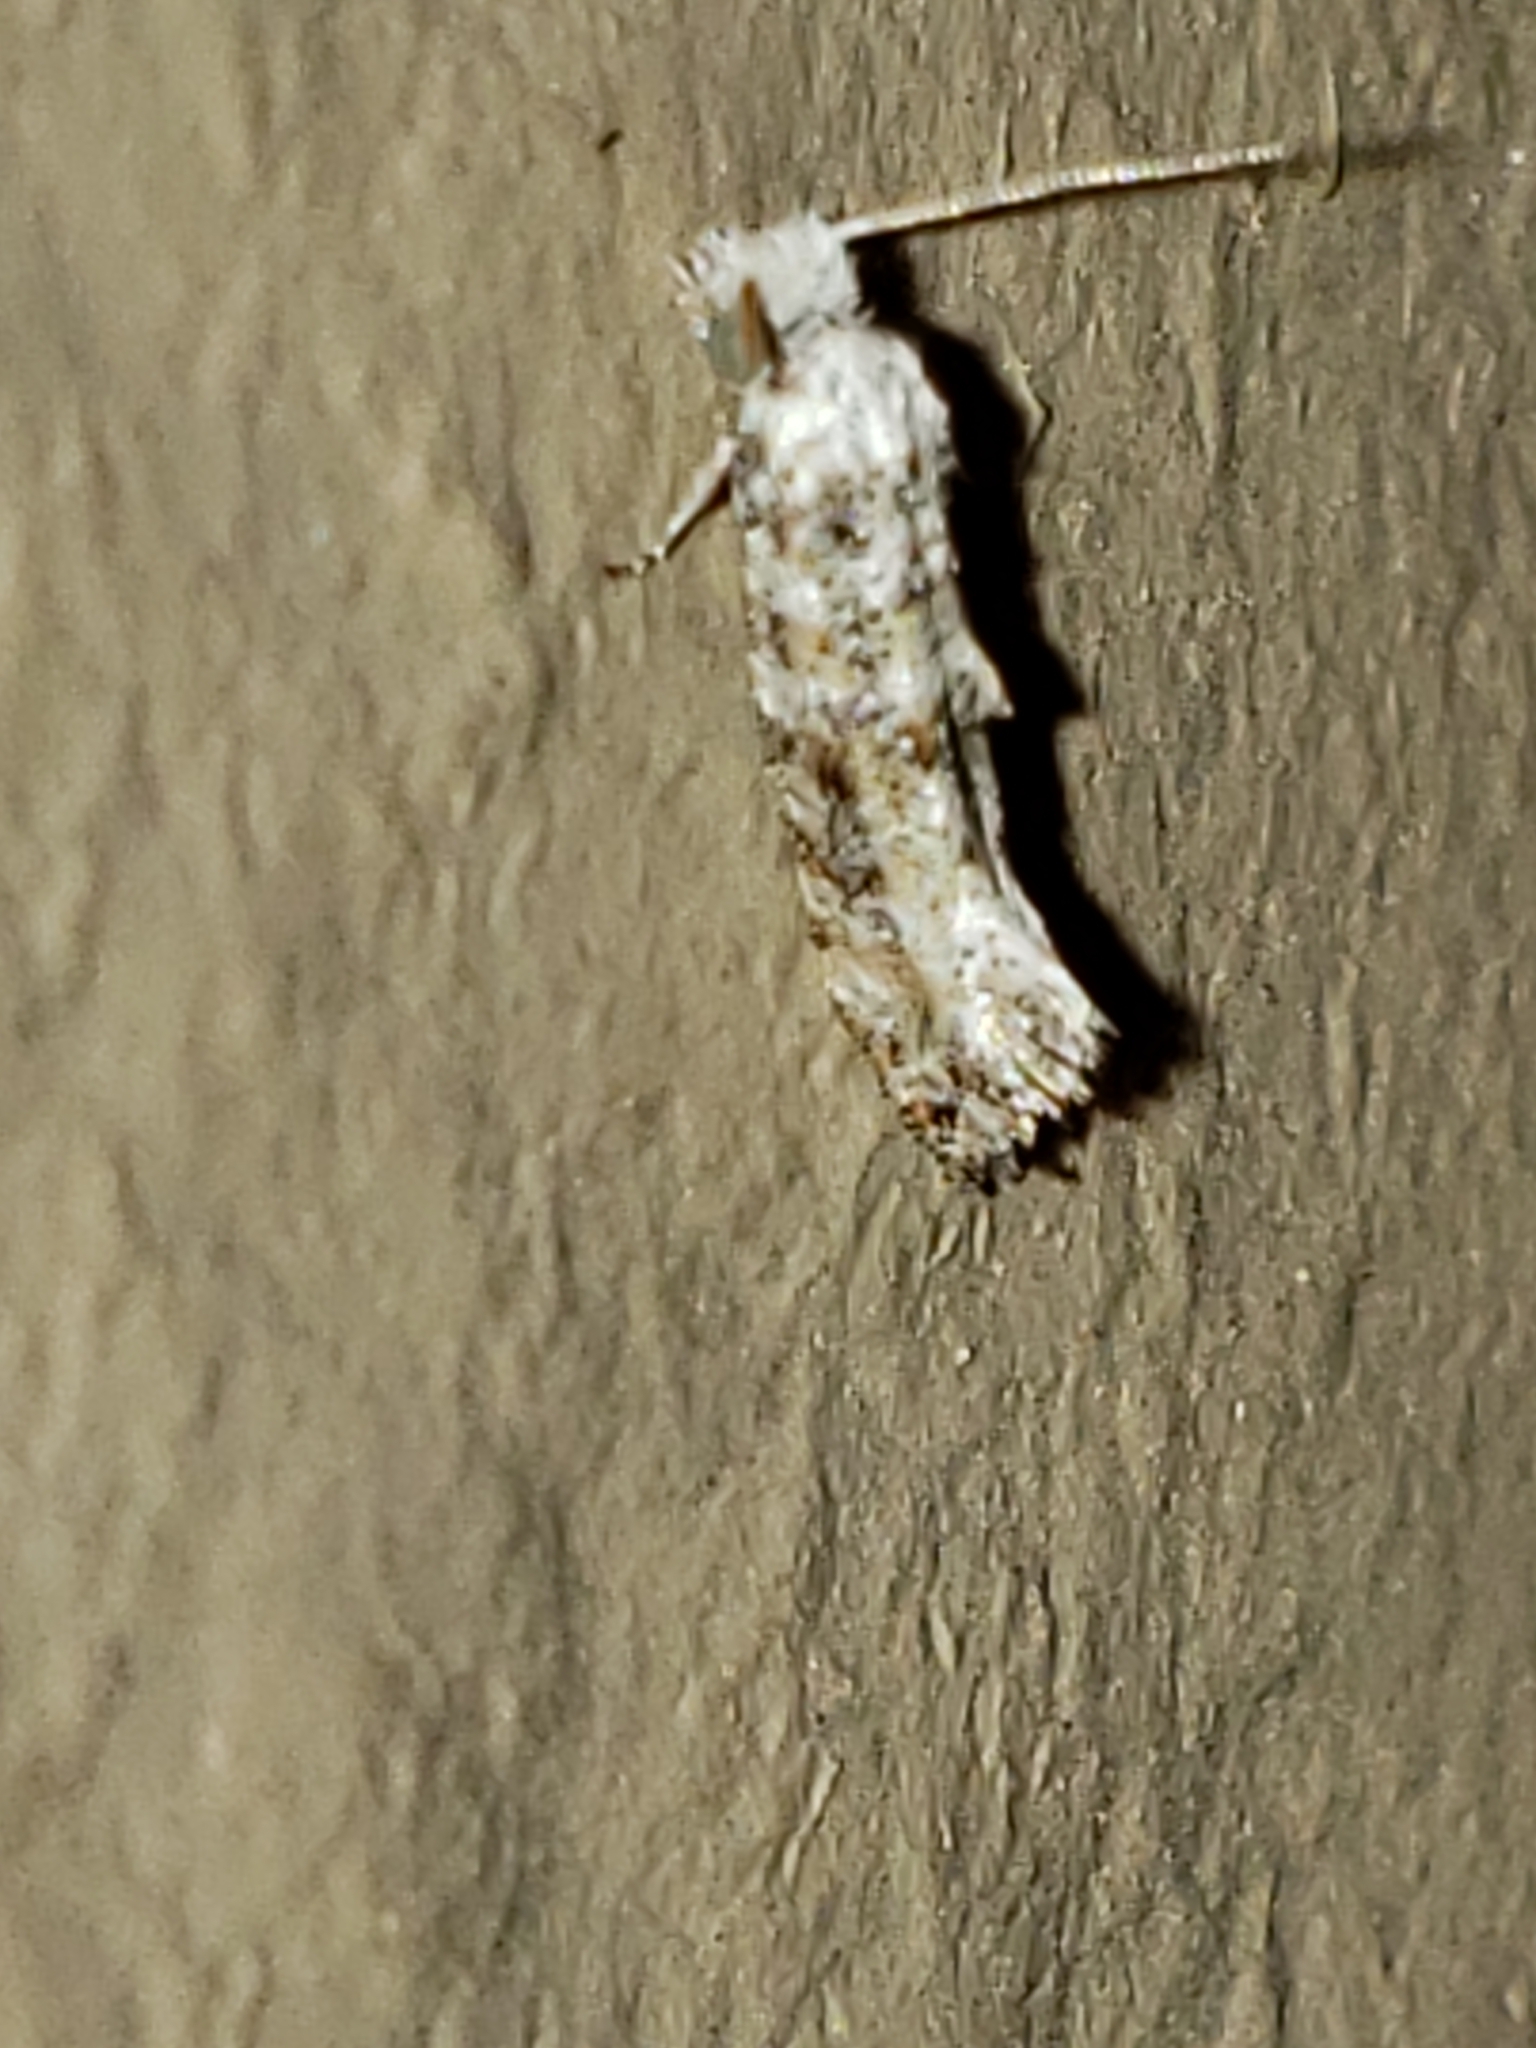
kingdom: Animalia
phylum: Arthropoda
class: Insecta
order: Lepidoptera
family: Tineidae
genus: Xylesthia
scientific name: Xylesthia pruniramiella
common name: Clemens' bark moth
